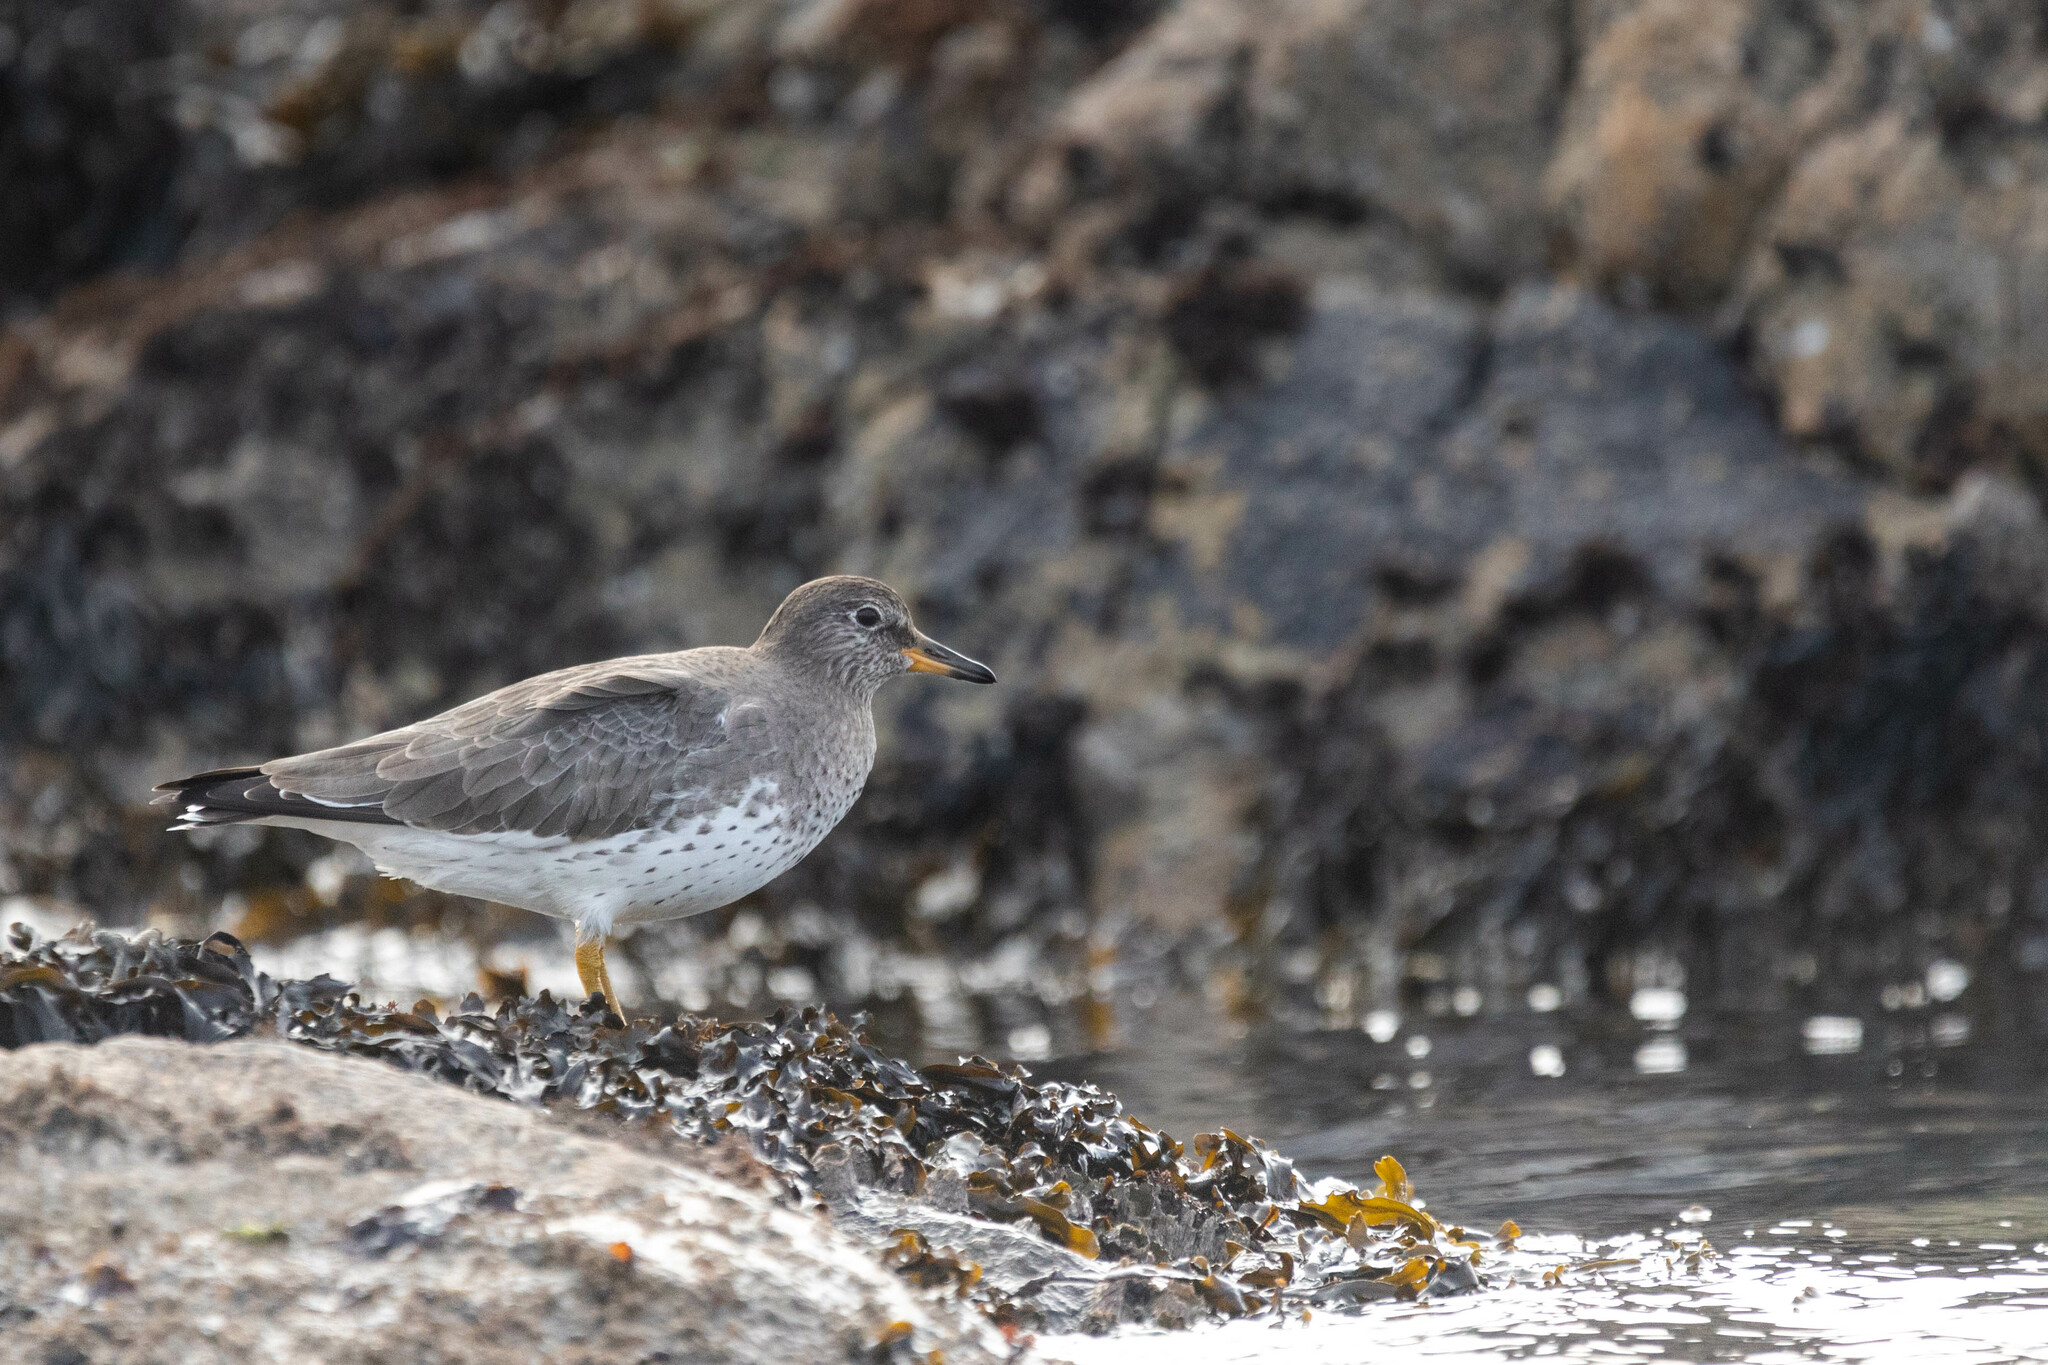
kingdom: Animalia
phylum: Chordata
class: Aves
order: Charadriiformes
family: Scolopacidae
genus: Calidris
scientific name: Calidris virgata
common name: Surfbird
